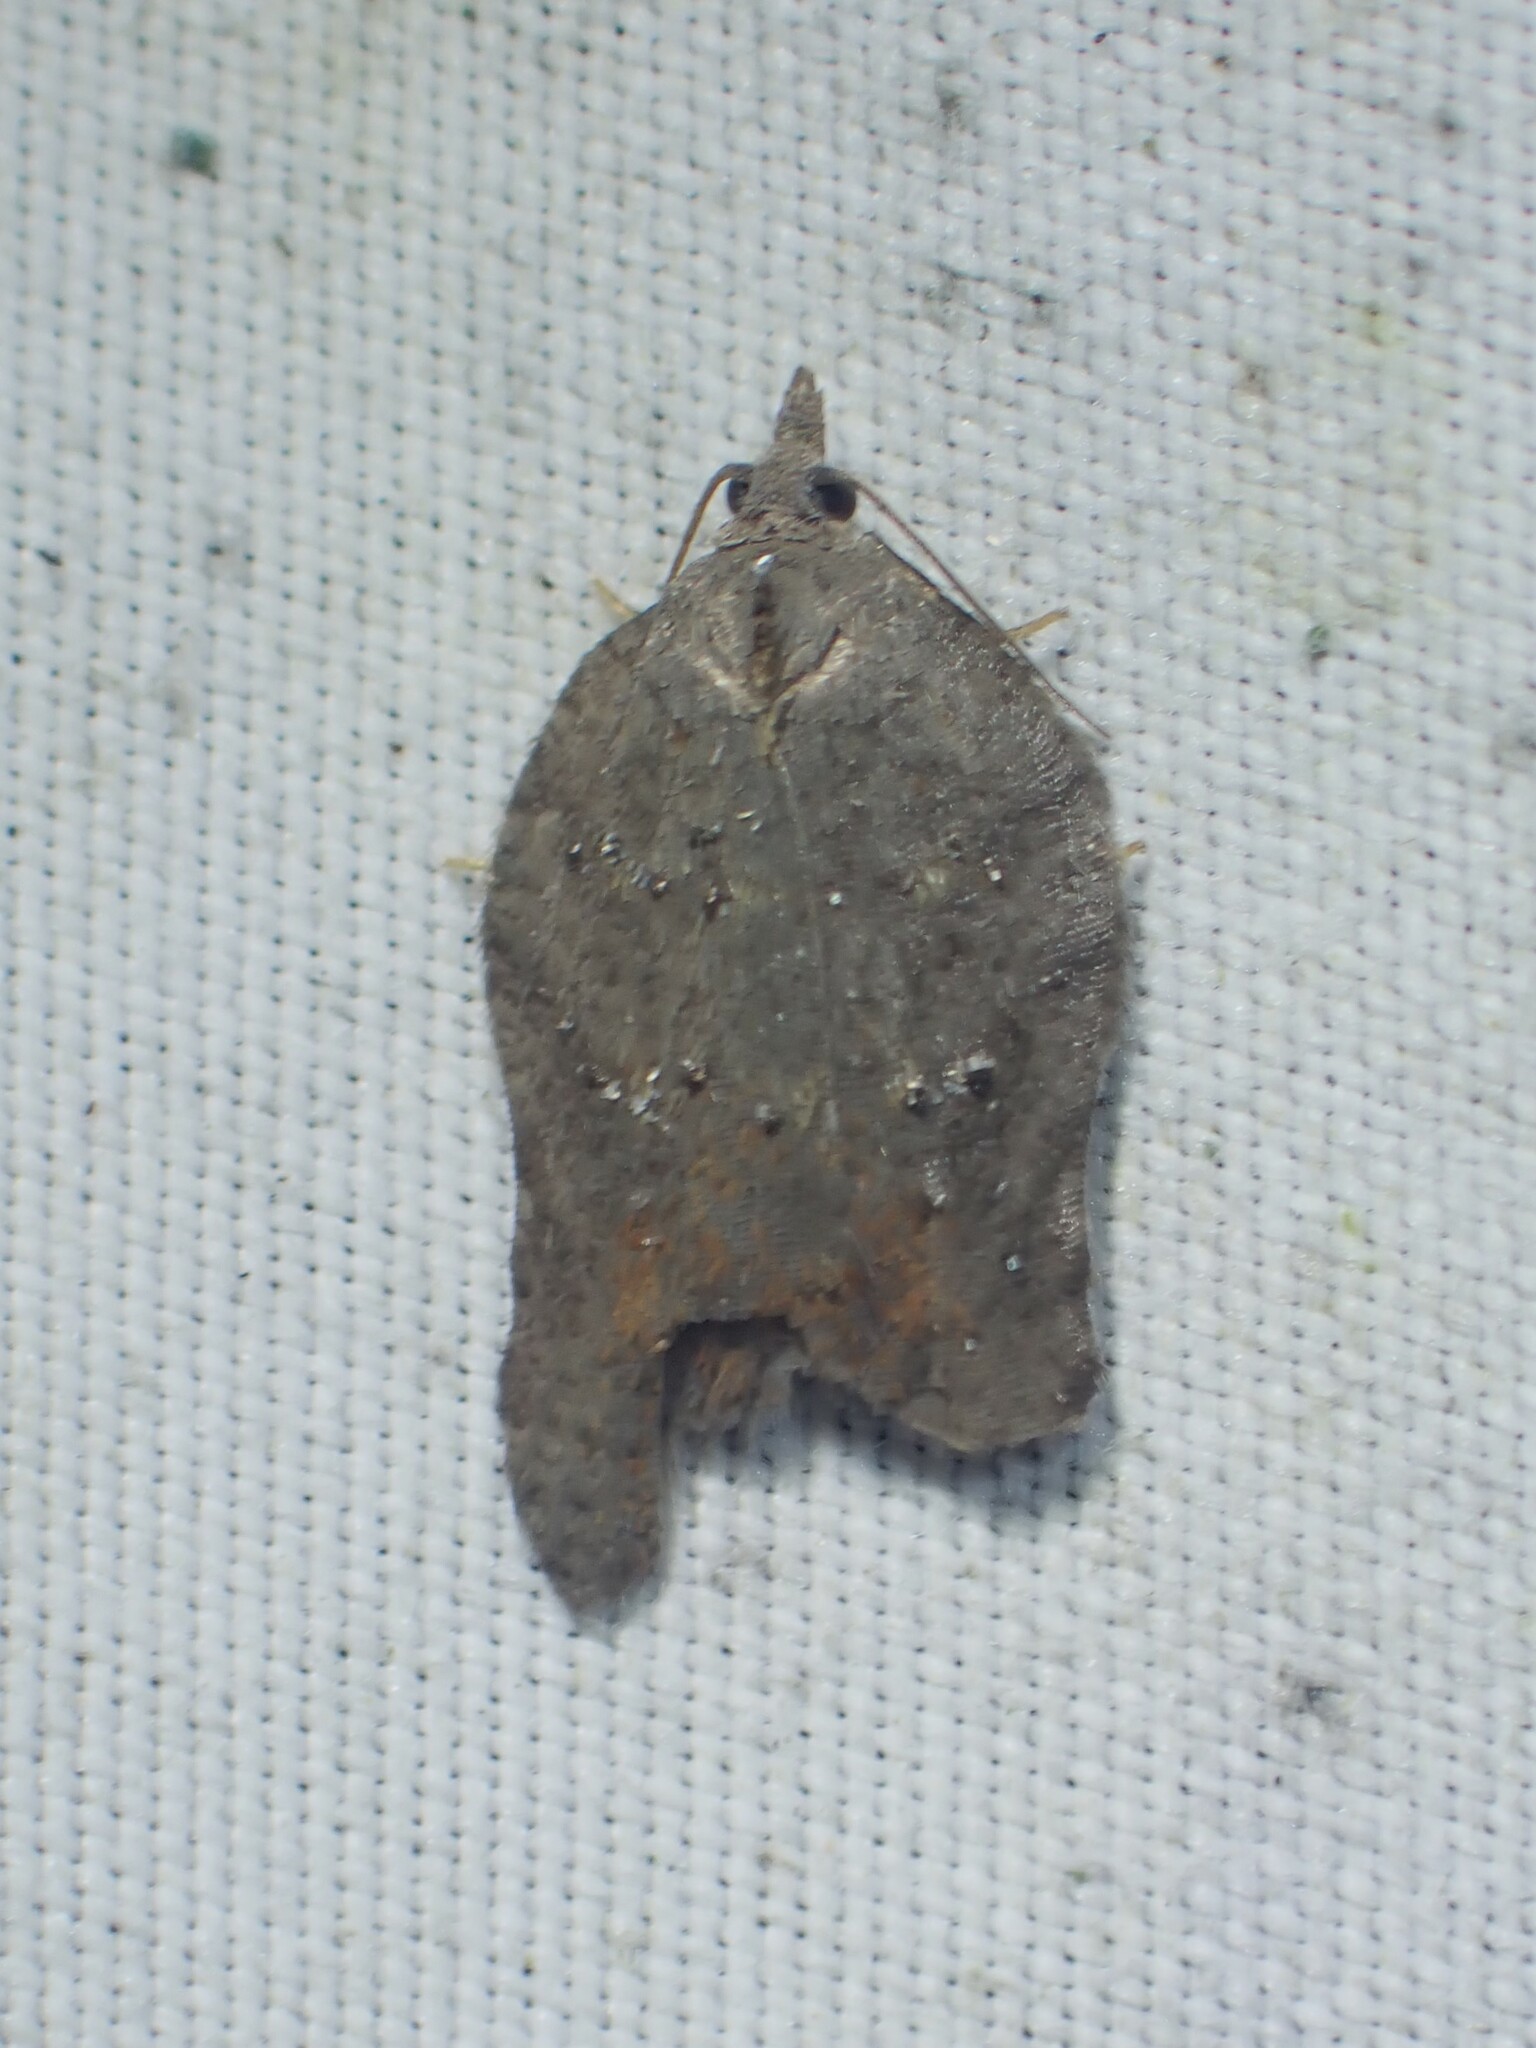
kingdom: Animalia
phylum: Arthropoda
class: Insecta
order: Lepidoptera
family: Tortricidae
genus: Acleris
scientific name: Acleris effractana
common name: Hook-winged tortrix moth
